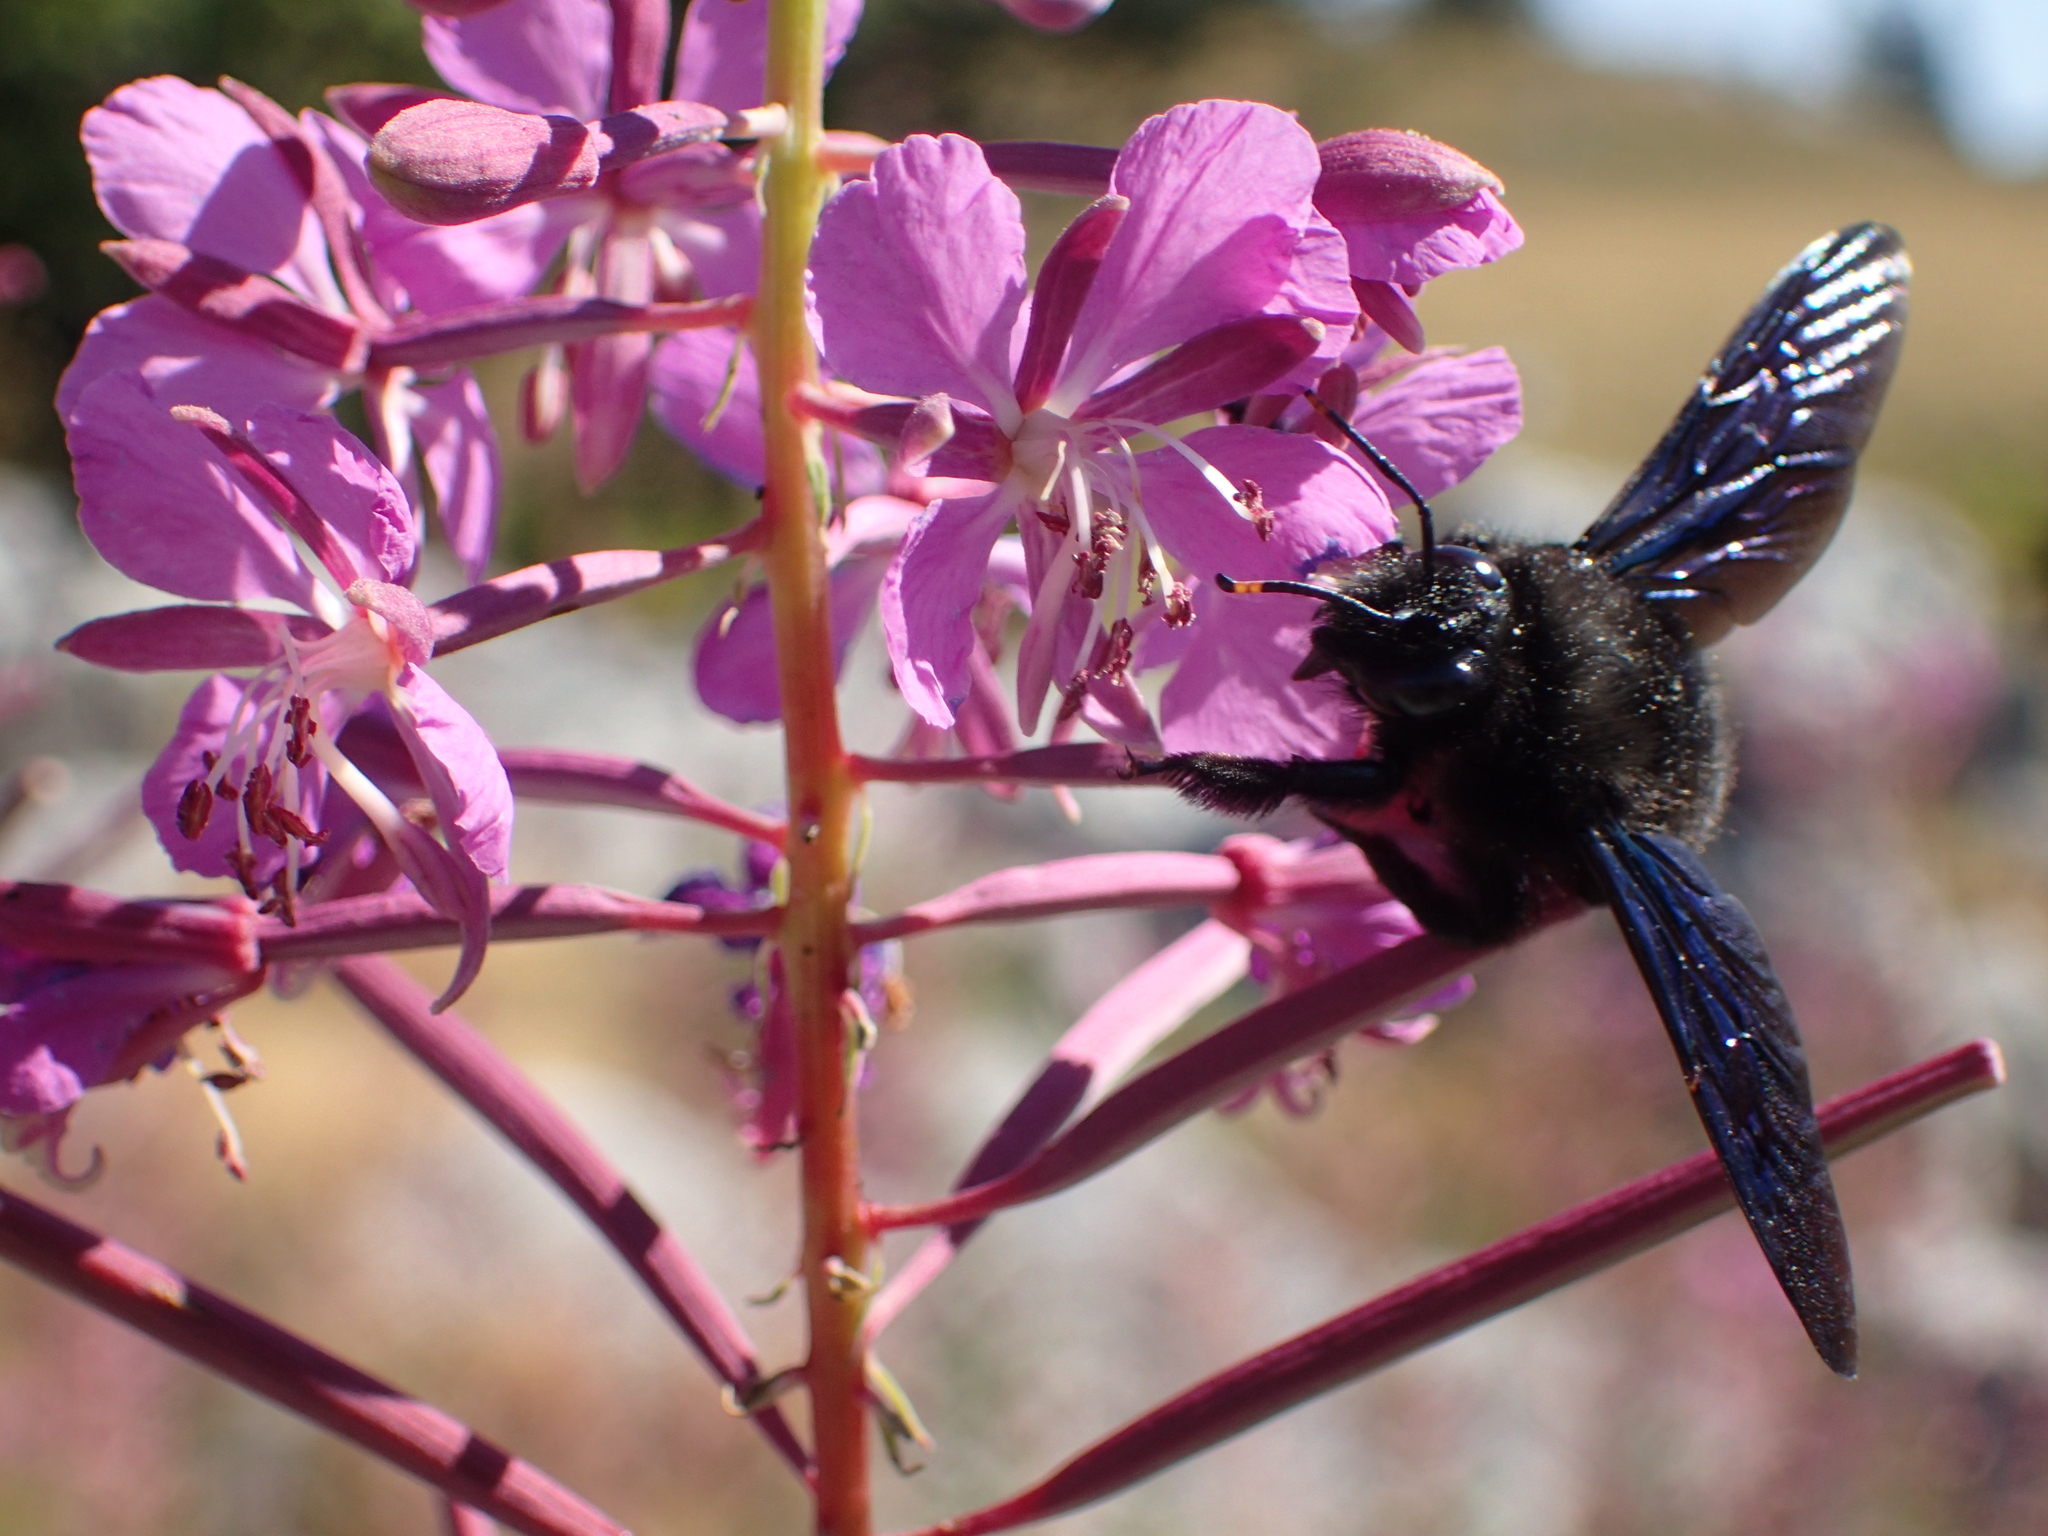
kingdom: Animalia
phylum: Arthropoda
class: Insecta
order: Hymenoptera
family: Apidae
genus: Xylocopa
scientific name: Xylocopa violacea
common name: Violet carpenter bee
